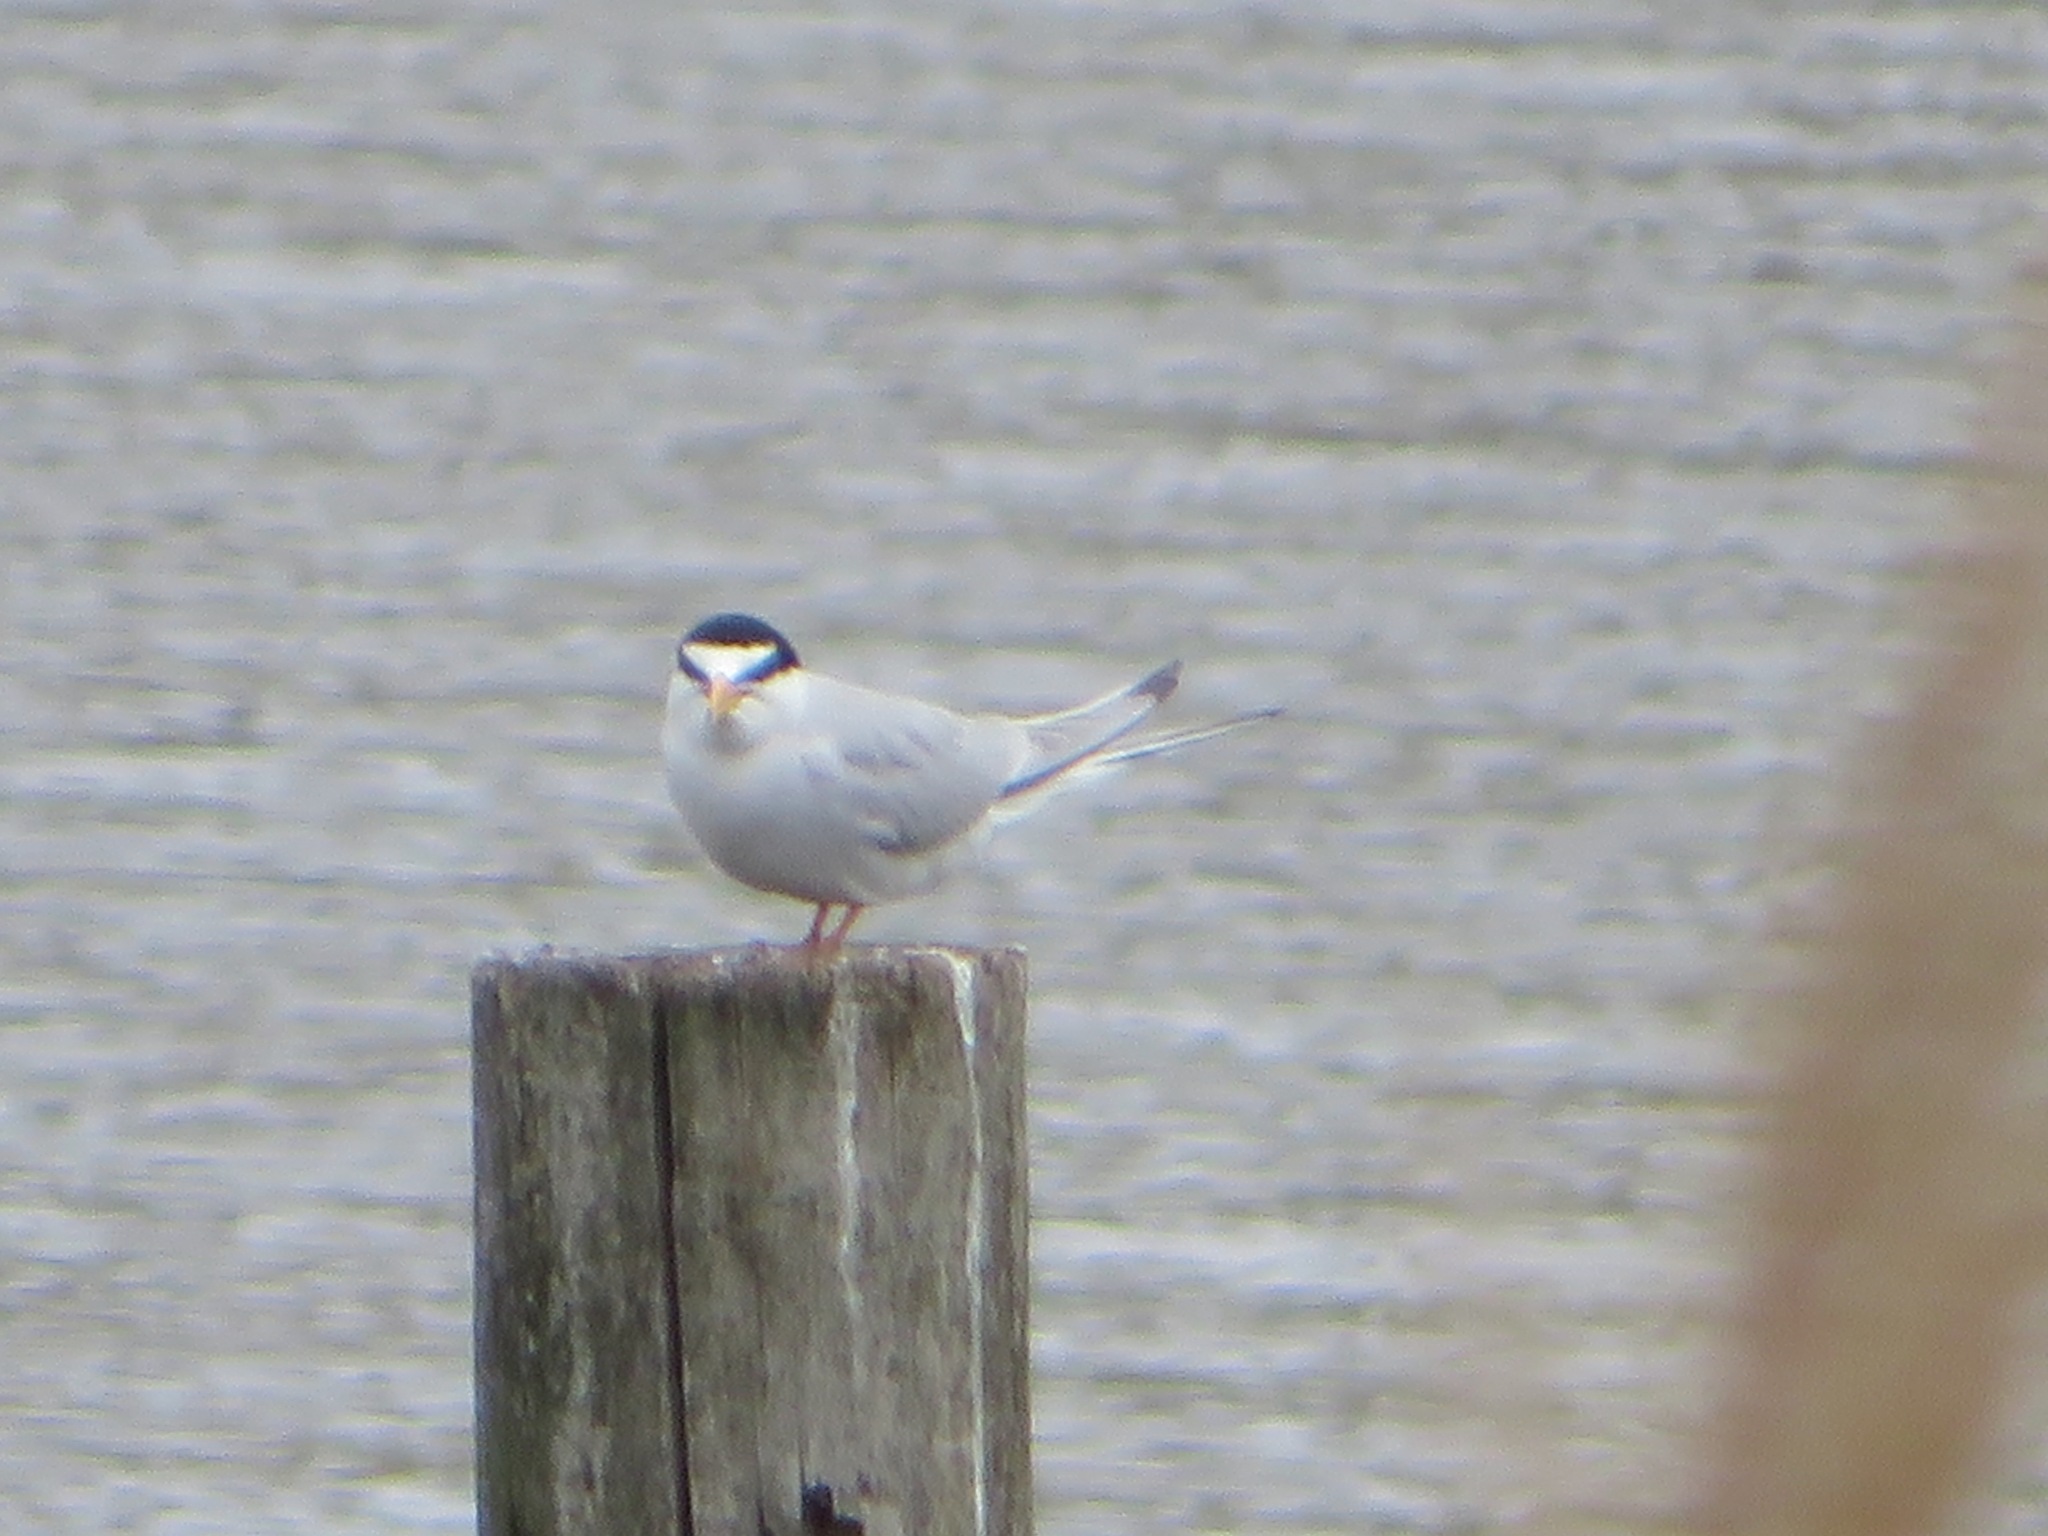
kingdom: Animalia
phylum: Chordata
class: Aves
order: Charadriiformes
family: Laridae
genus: Sternula
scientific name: Sternula albifrons
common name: Little tern
